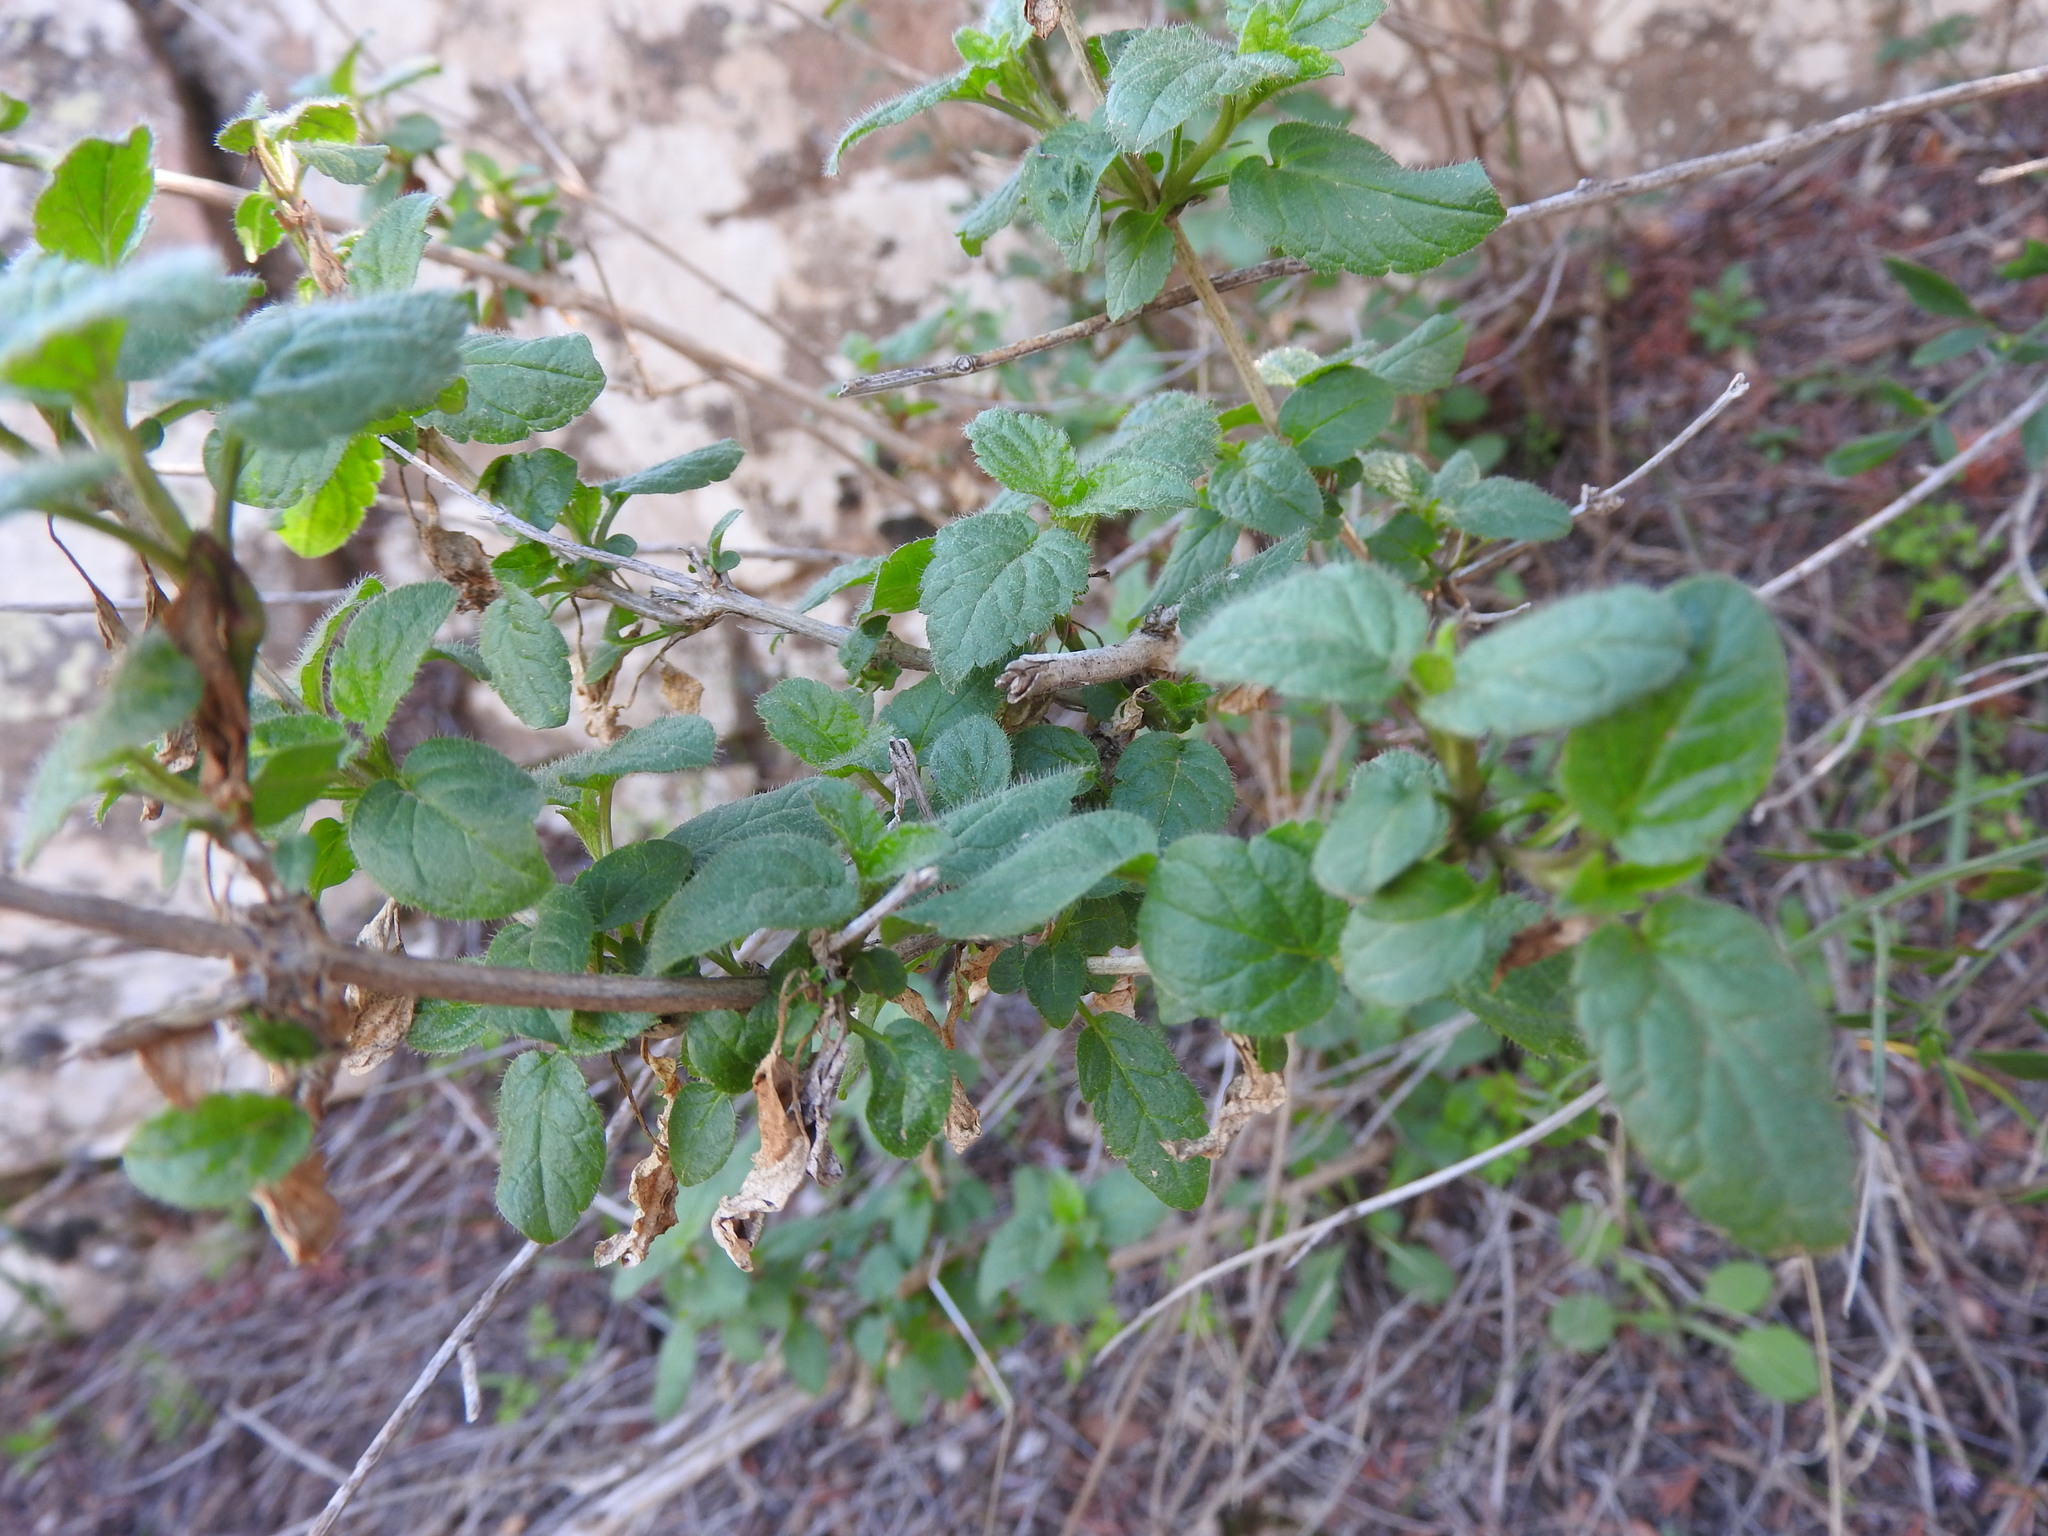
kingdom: Plantae
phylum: Tracheophyta
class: Magnoliopsida
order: Lamiales
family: Lamiaceae
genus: Prasium
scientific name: Prasium majus
